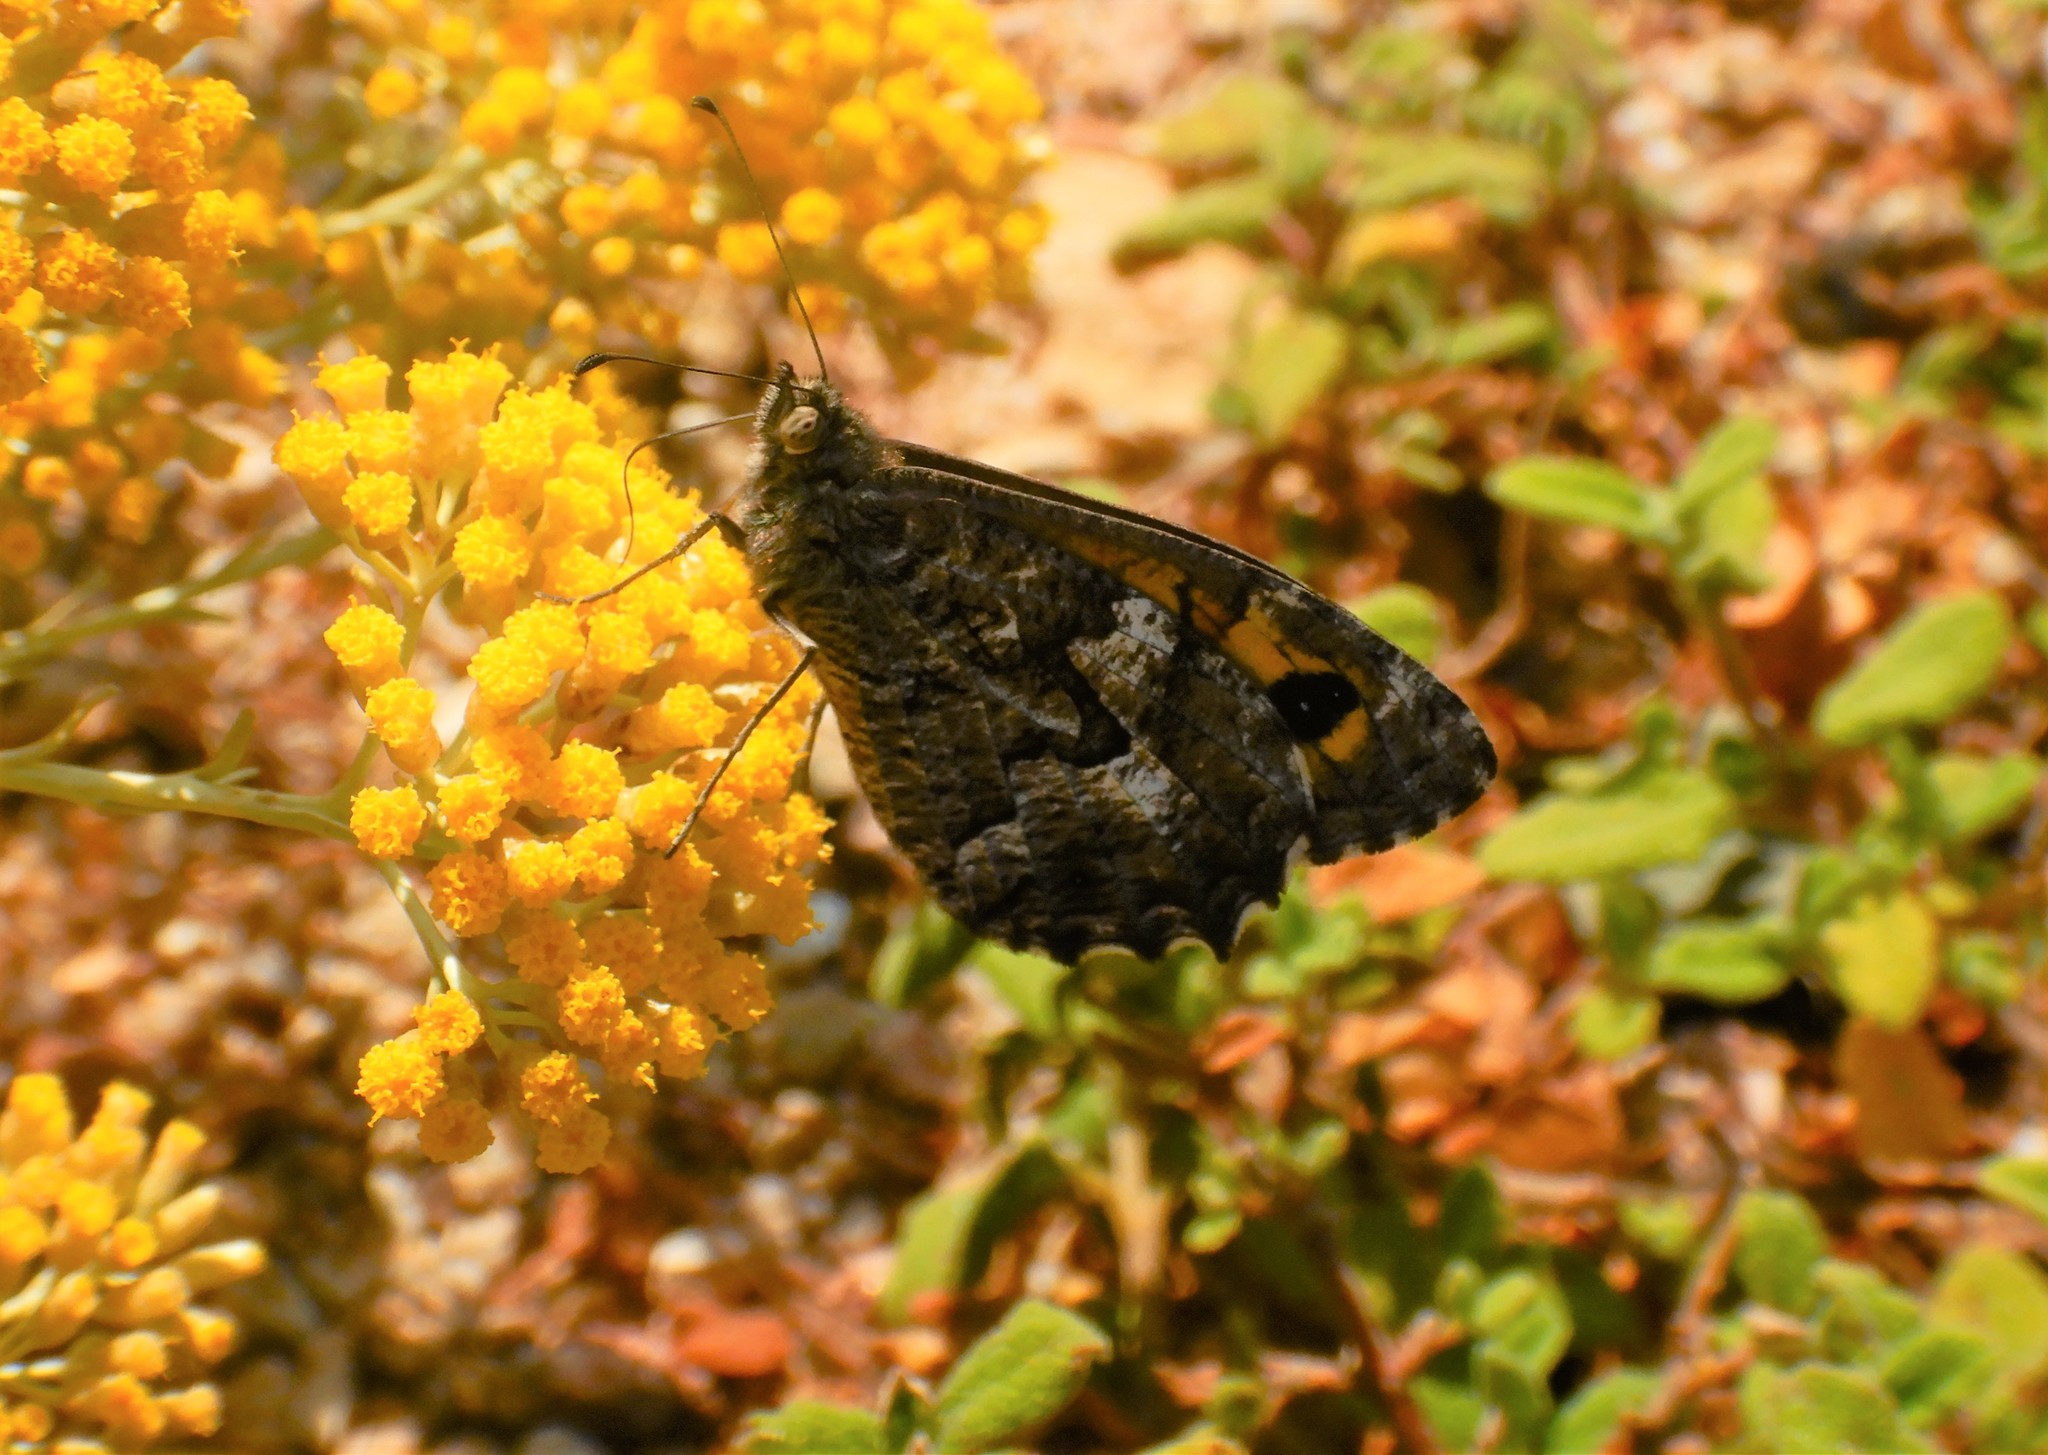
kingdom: Animalia
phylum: Arthropoda
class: Insecta
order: Lepidoptera
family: Nymphalidae
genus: Hipparchia
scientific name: Hipparchia algirica
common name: Mountain grayling
